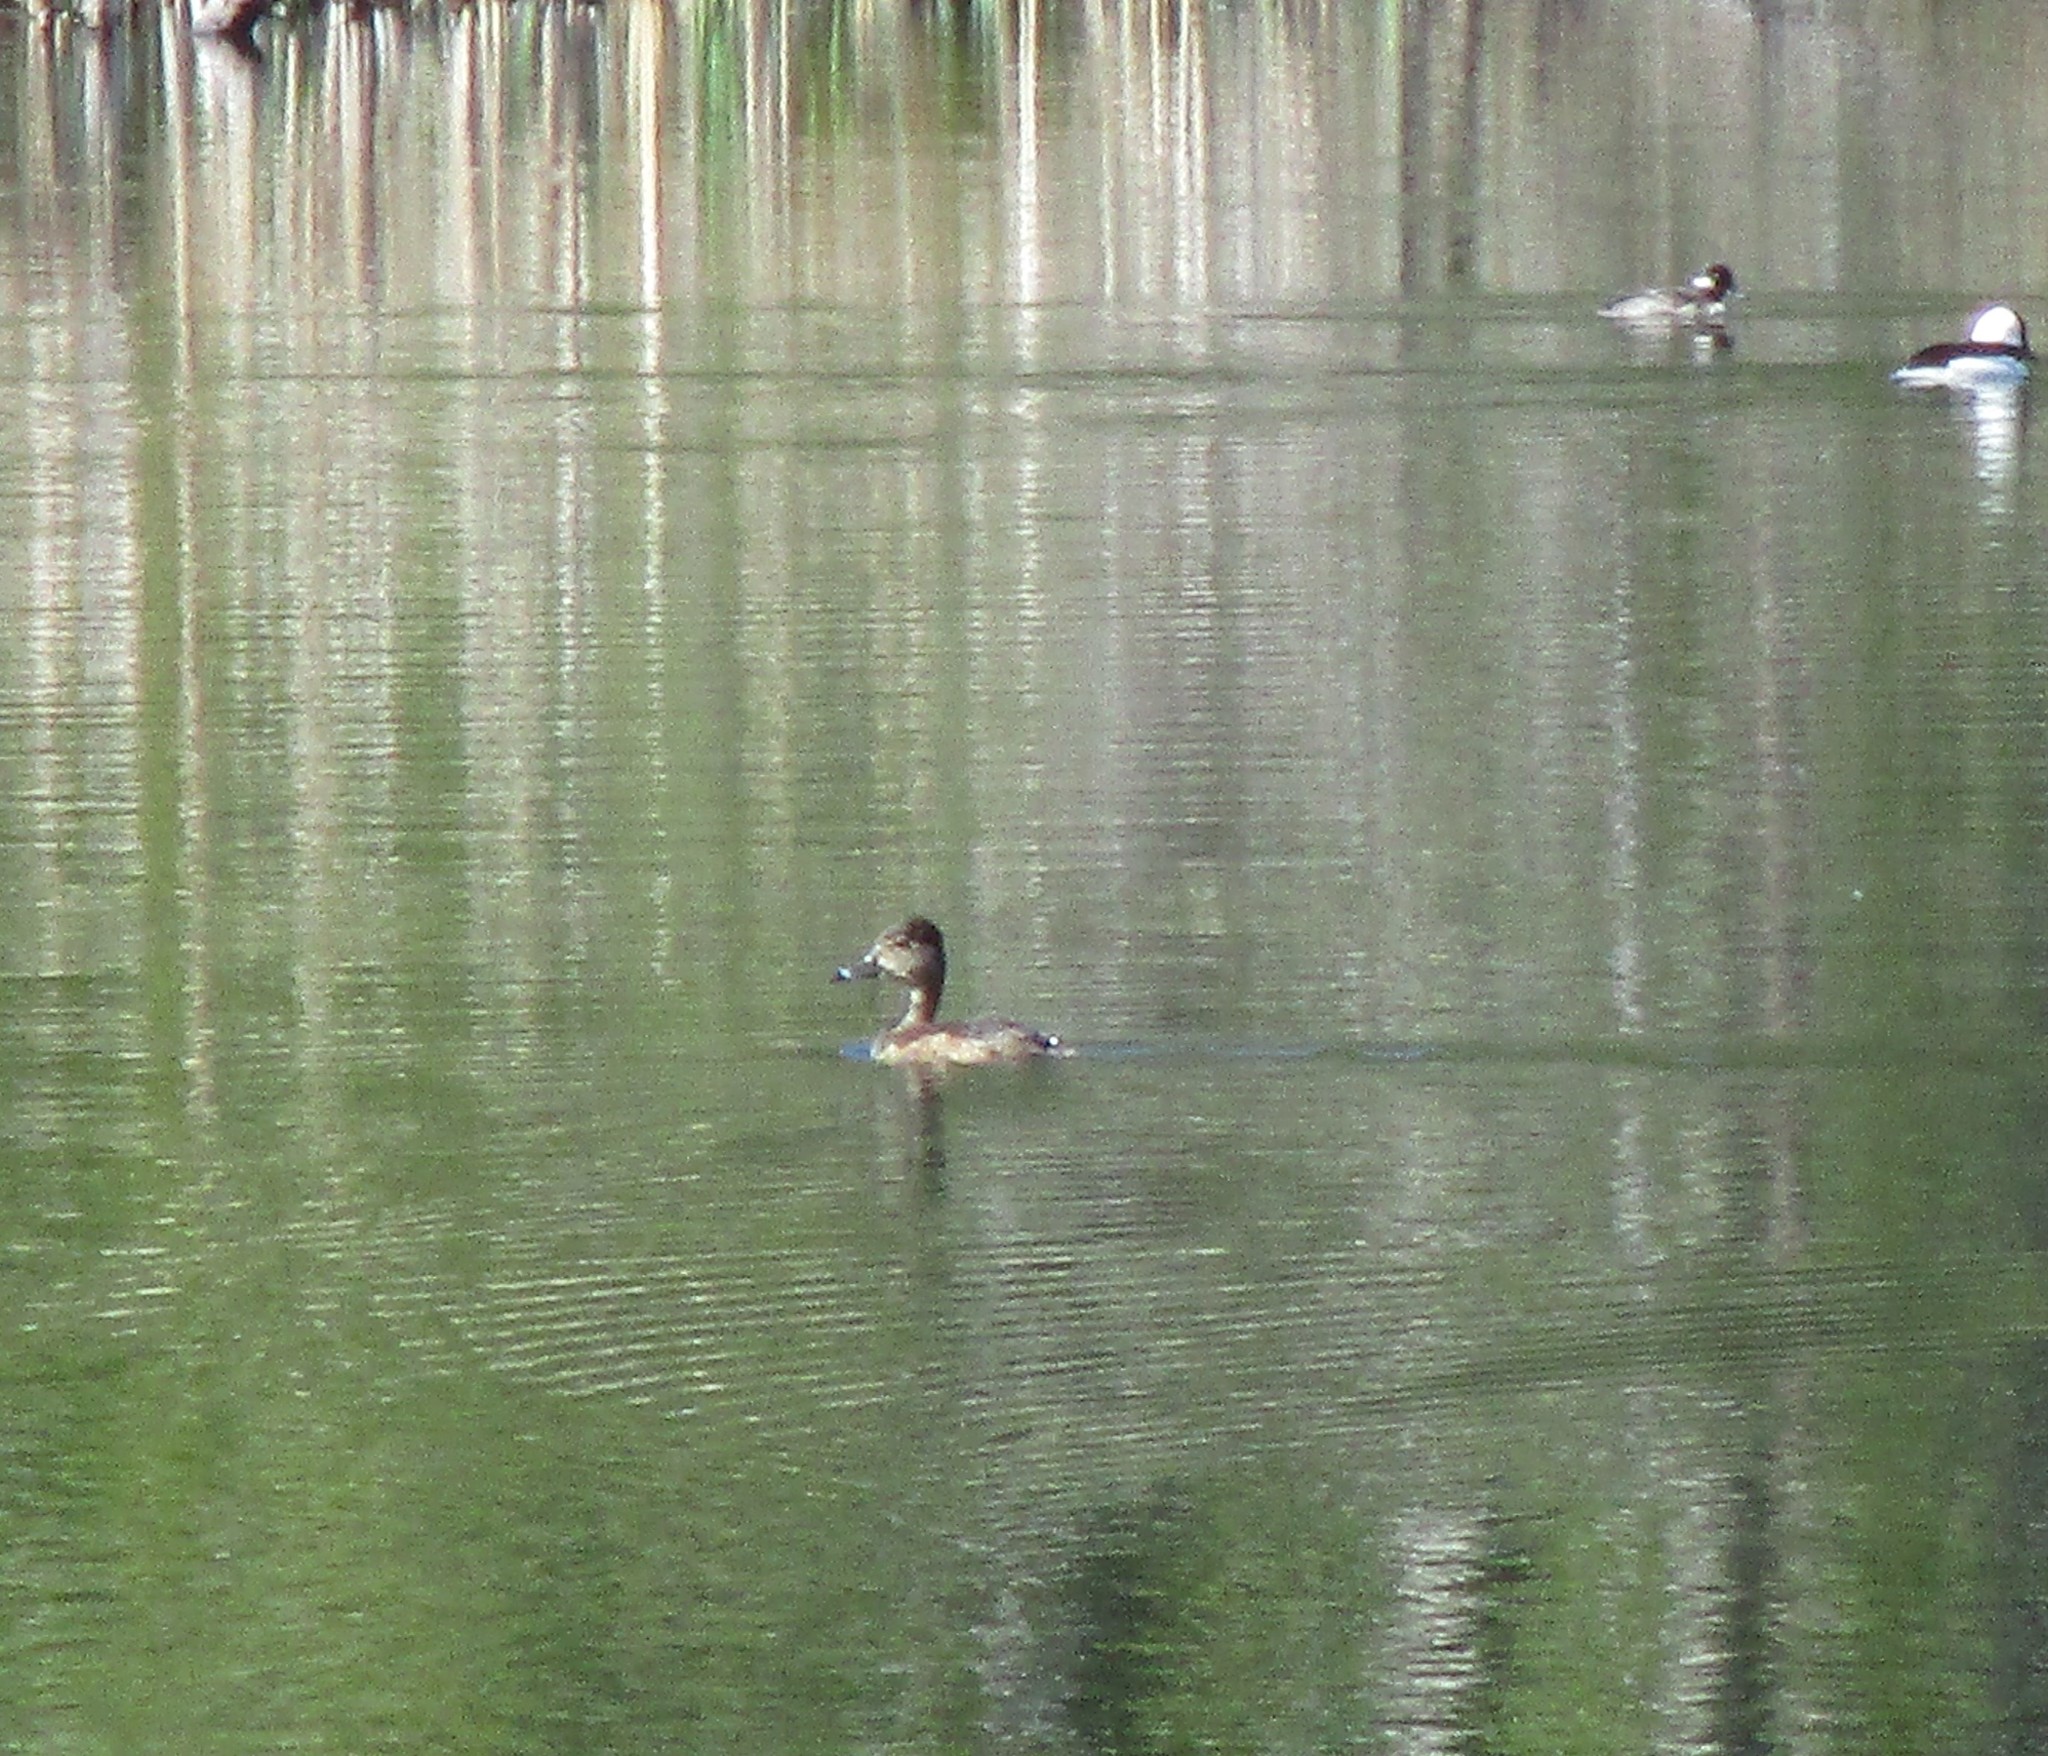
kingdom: Animalia
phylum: Chordata
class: Aves
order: Anseriformes
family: Anatidae
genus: Aythya
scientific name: Aythya collaris
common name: Ring-necked duck
